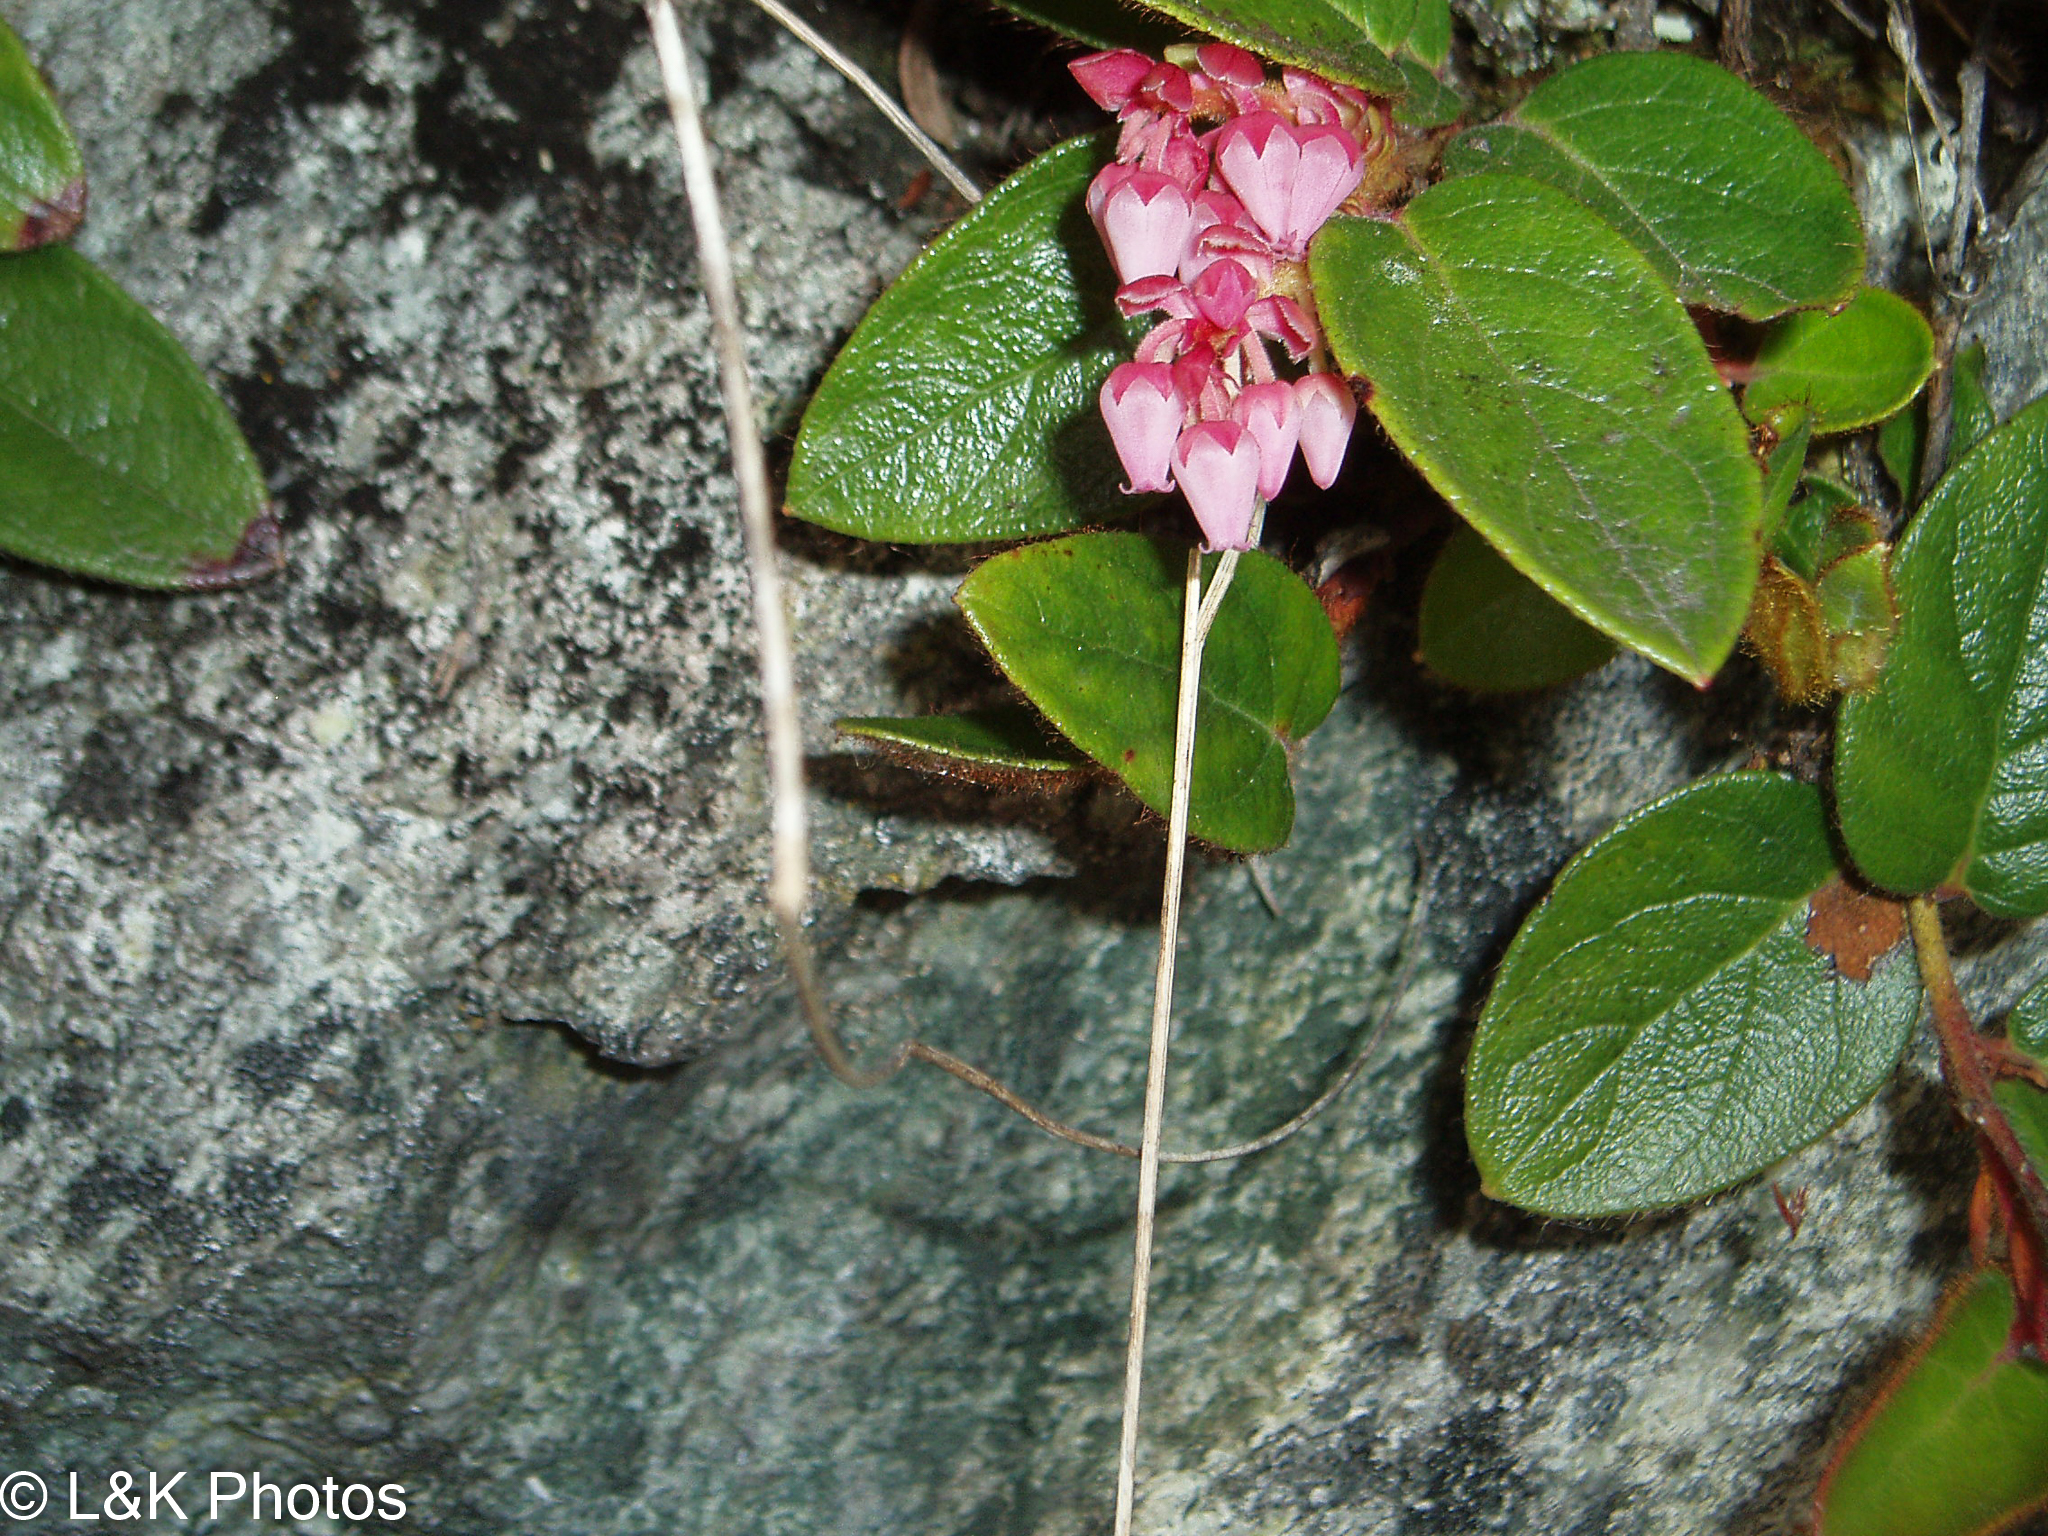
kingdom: Plantae
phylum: Tracheophyta
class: Magnoliopsida
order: Ericales
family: Ericaceae
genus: Gaultheria
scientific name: Gaultheria glomerata
